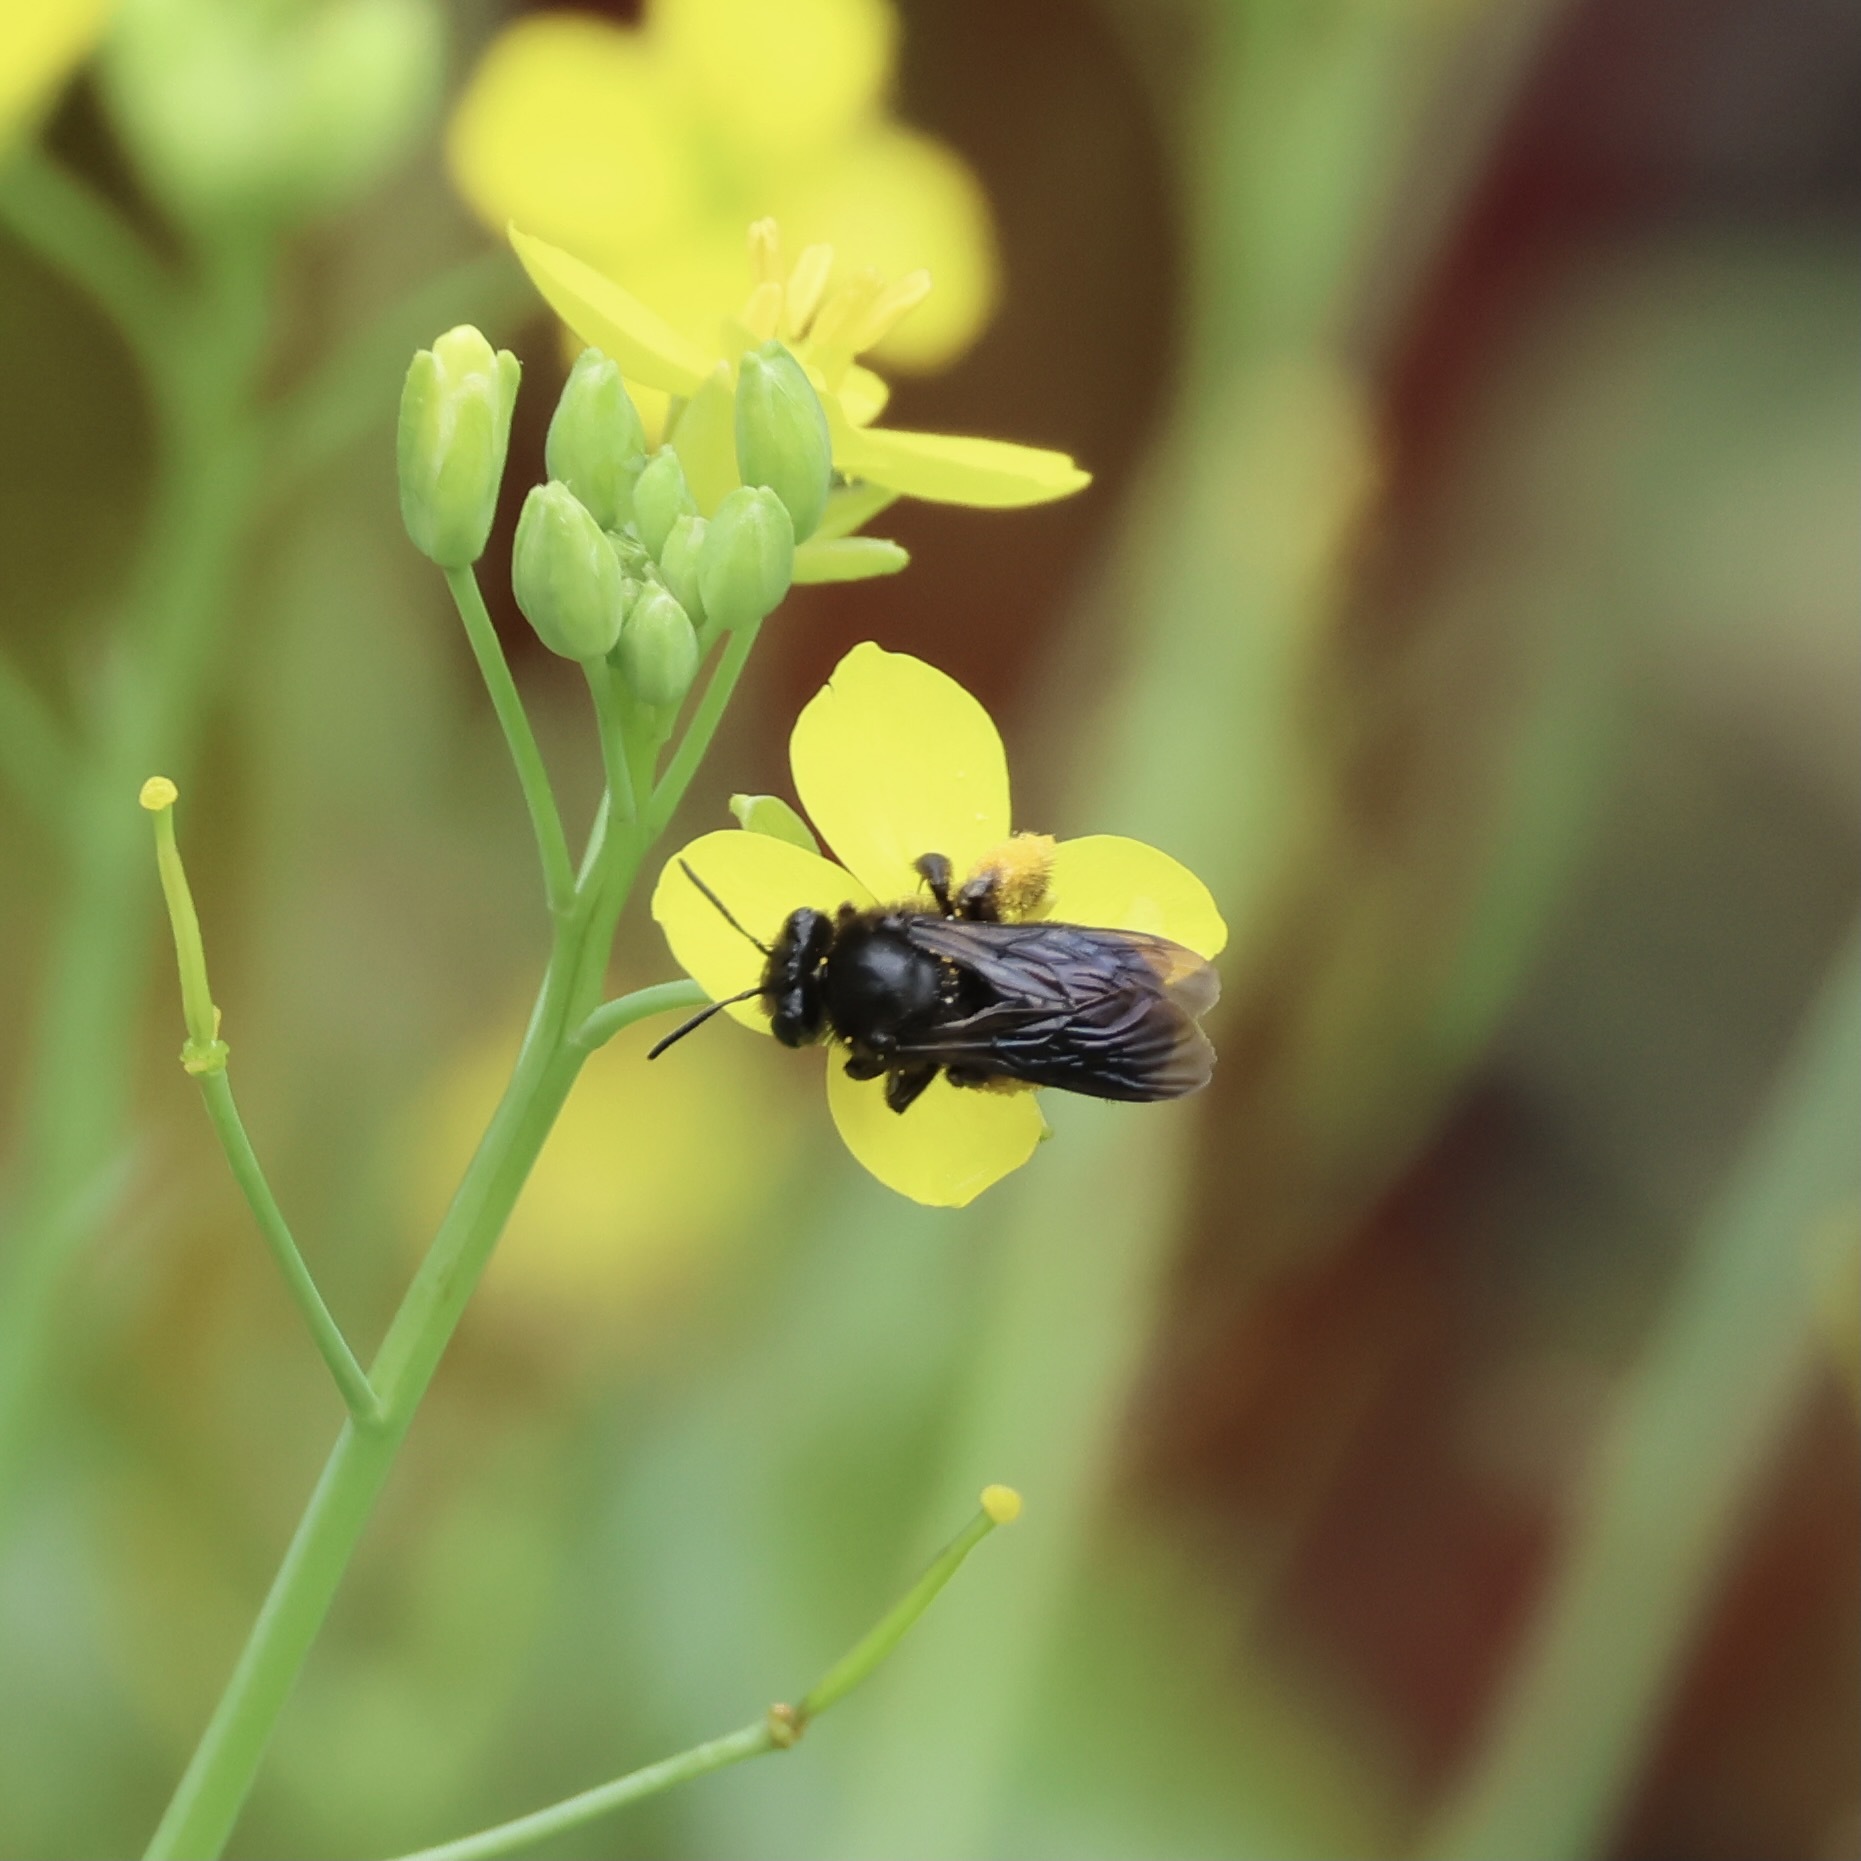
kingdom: Animalia
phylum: Arthropoda
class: Insecta
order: Hymenoptera
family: Apidae
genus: Melissodes
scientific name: Melissodes bimaculatus
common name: Two-spotted long-horned bee
